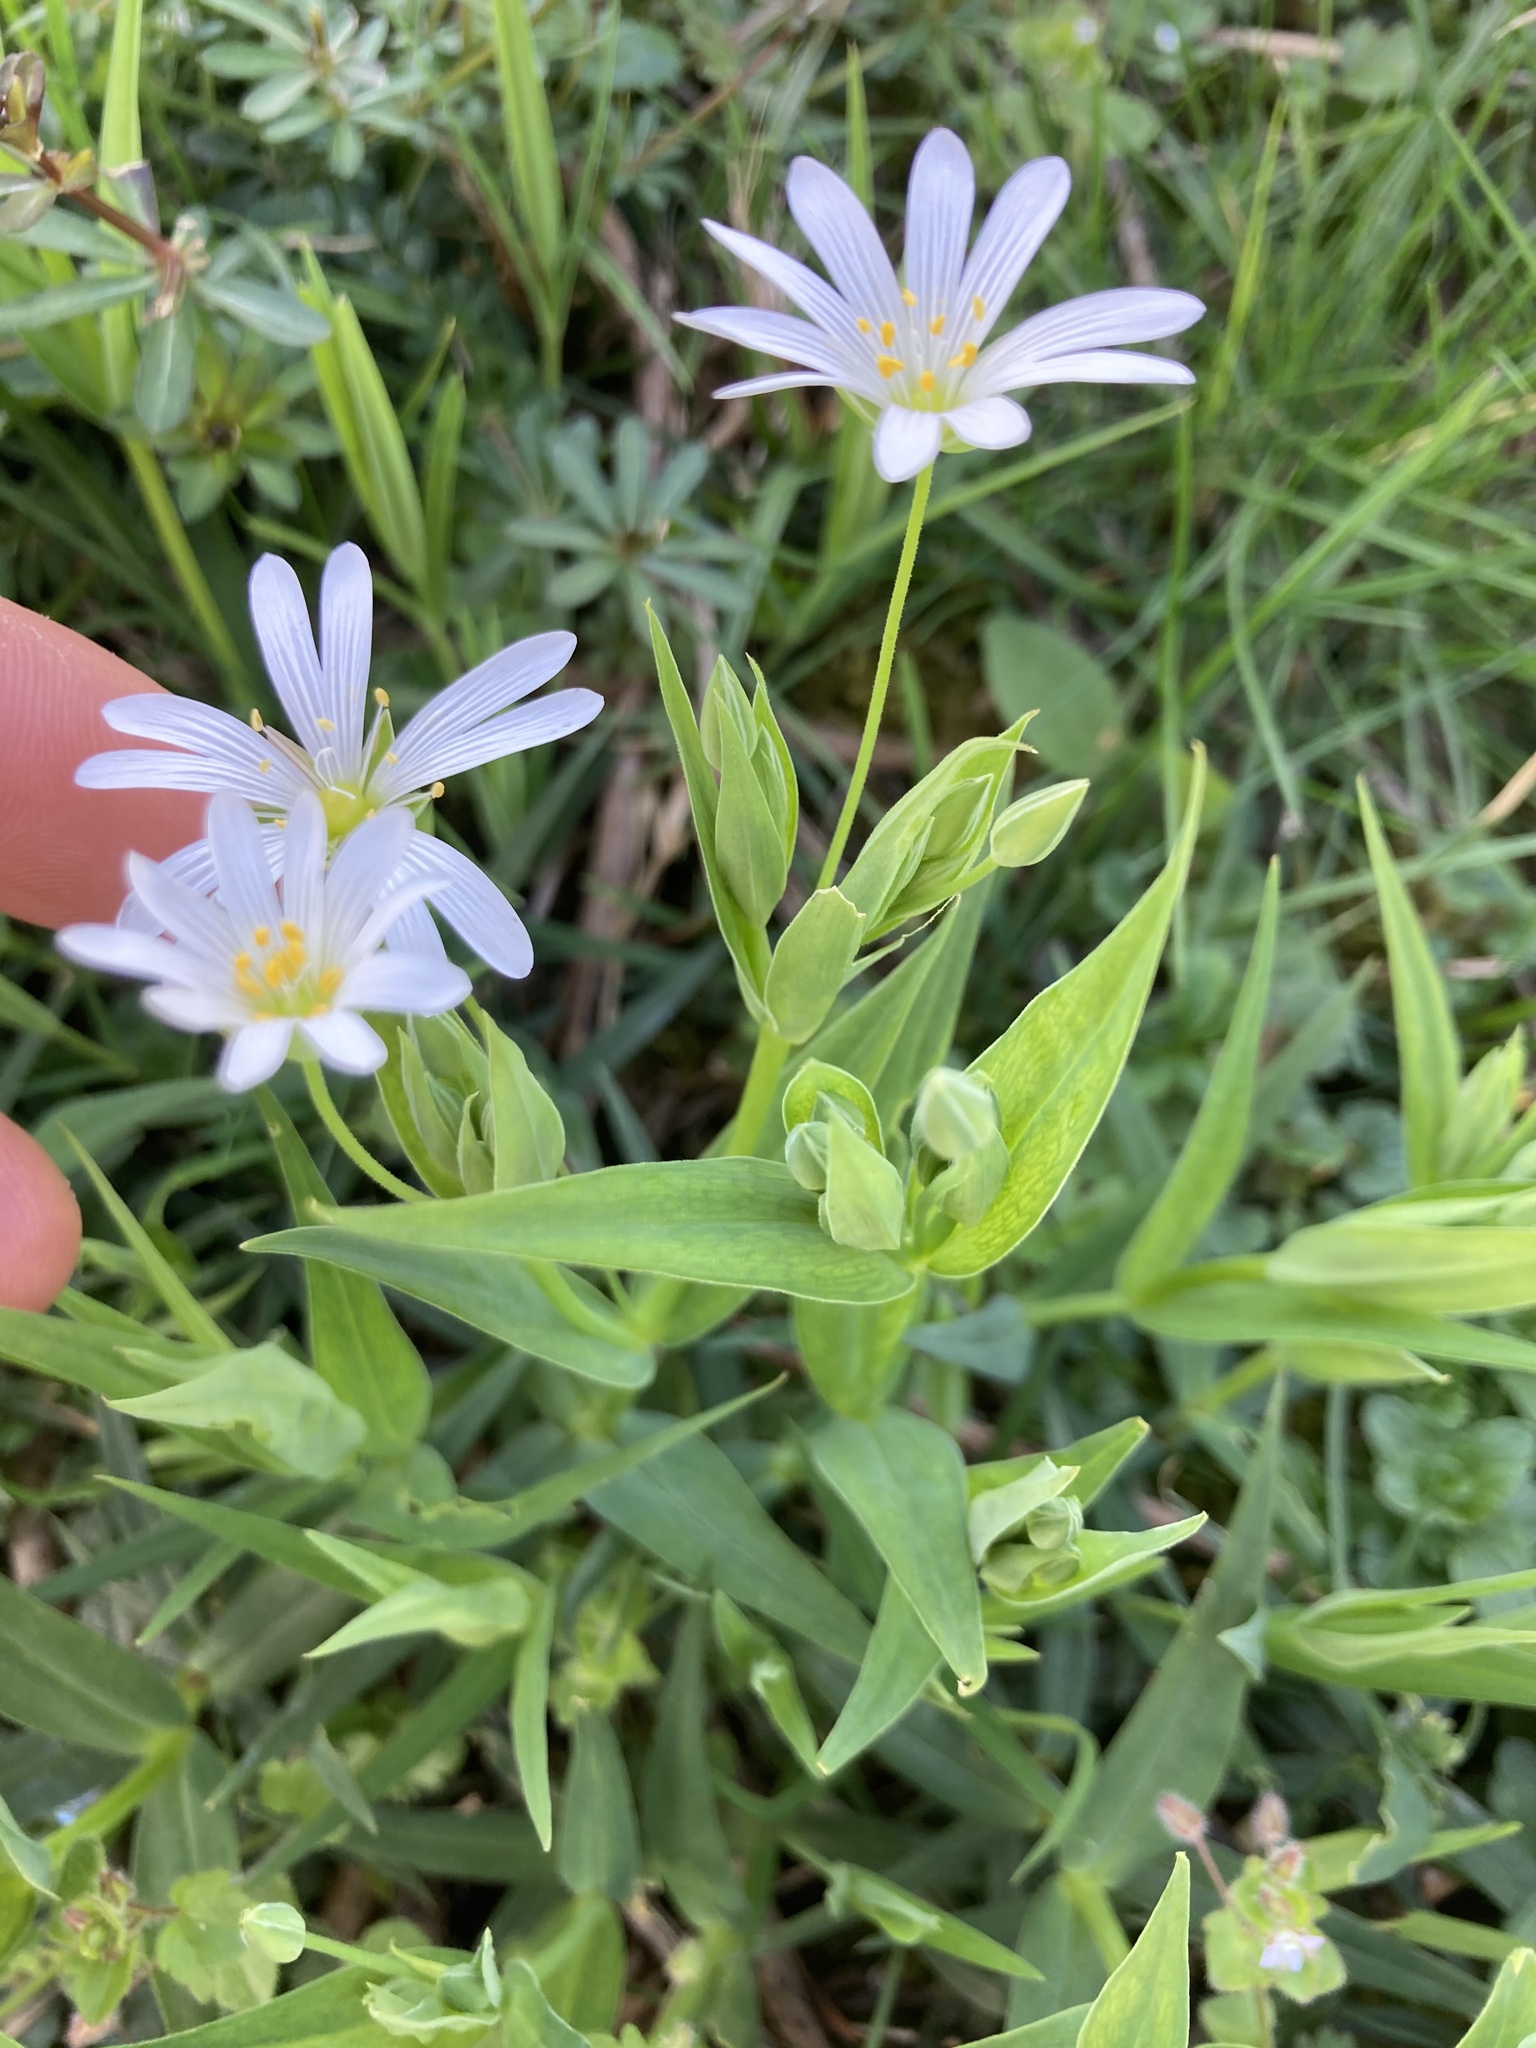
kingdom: Plantae
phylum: Tracheophyta
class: Magnoliopsida
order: Caryophyllales
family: Caryophyllaceae
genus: Rabelera
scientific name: Rabelera holostea
